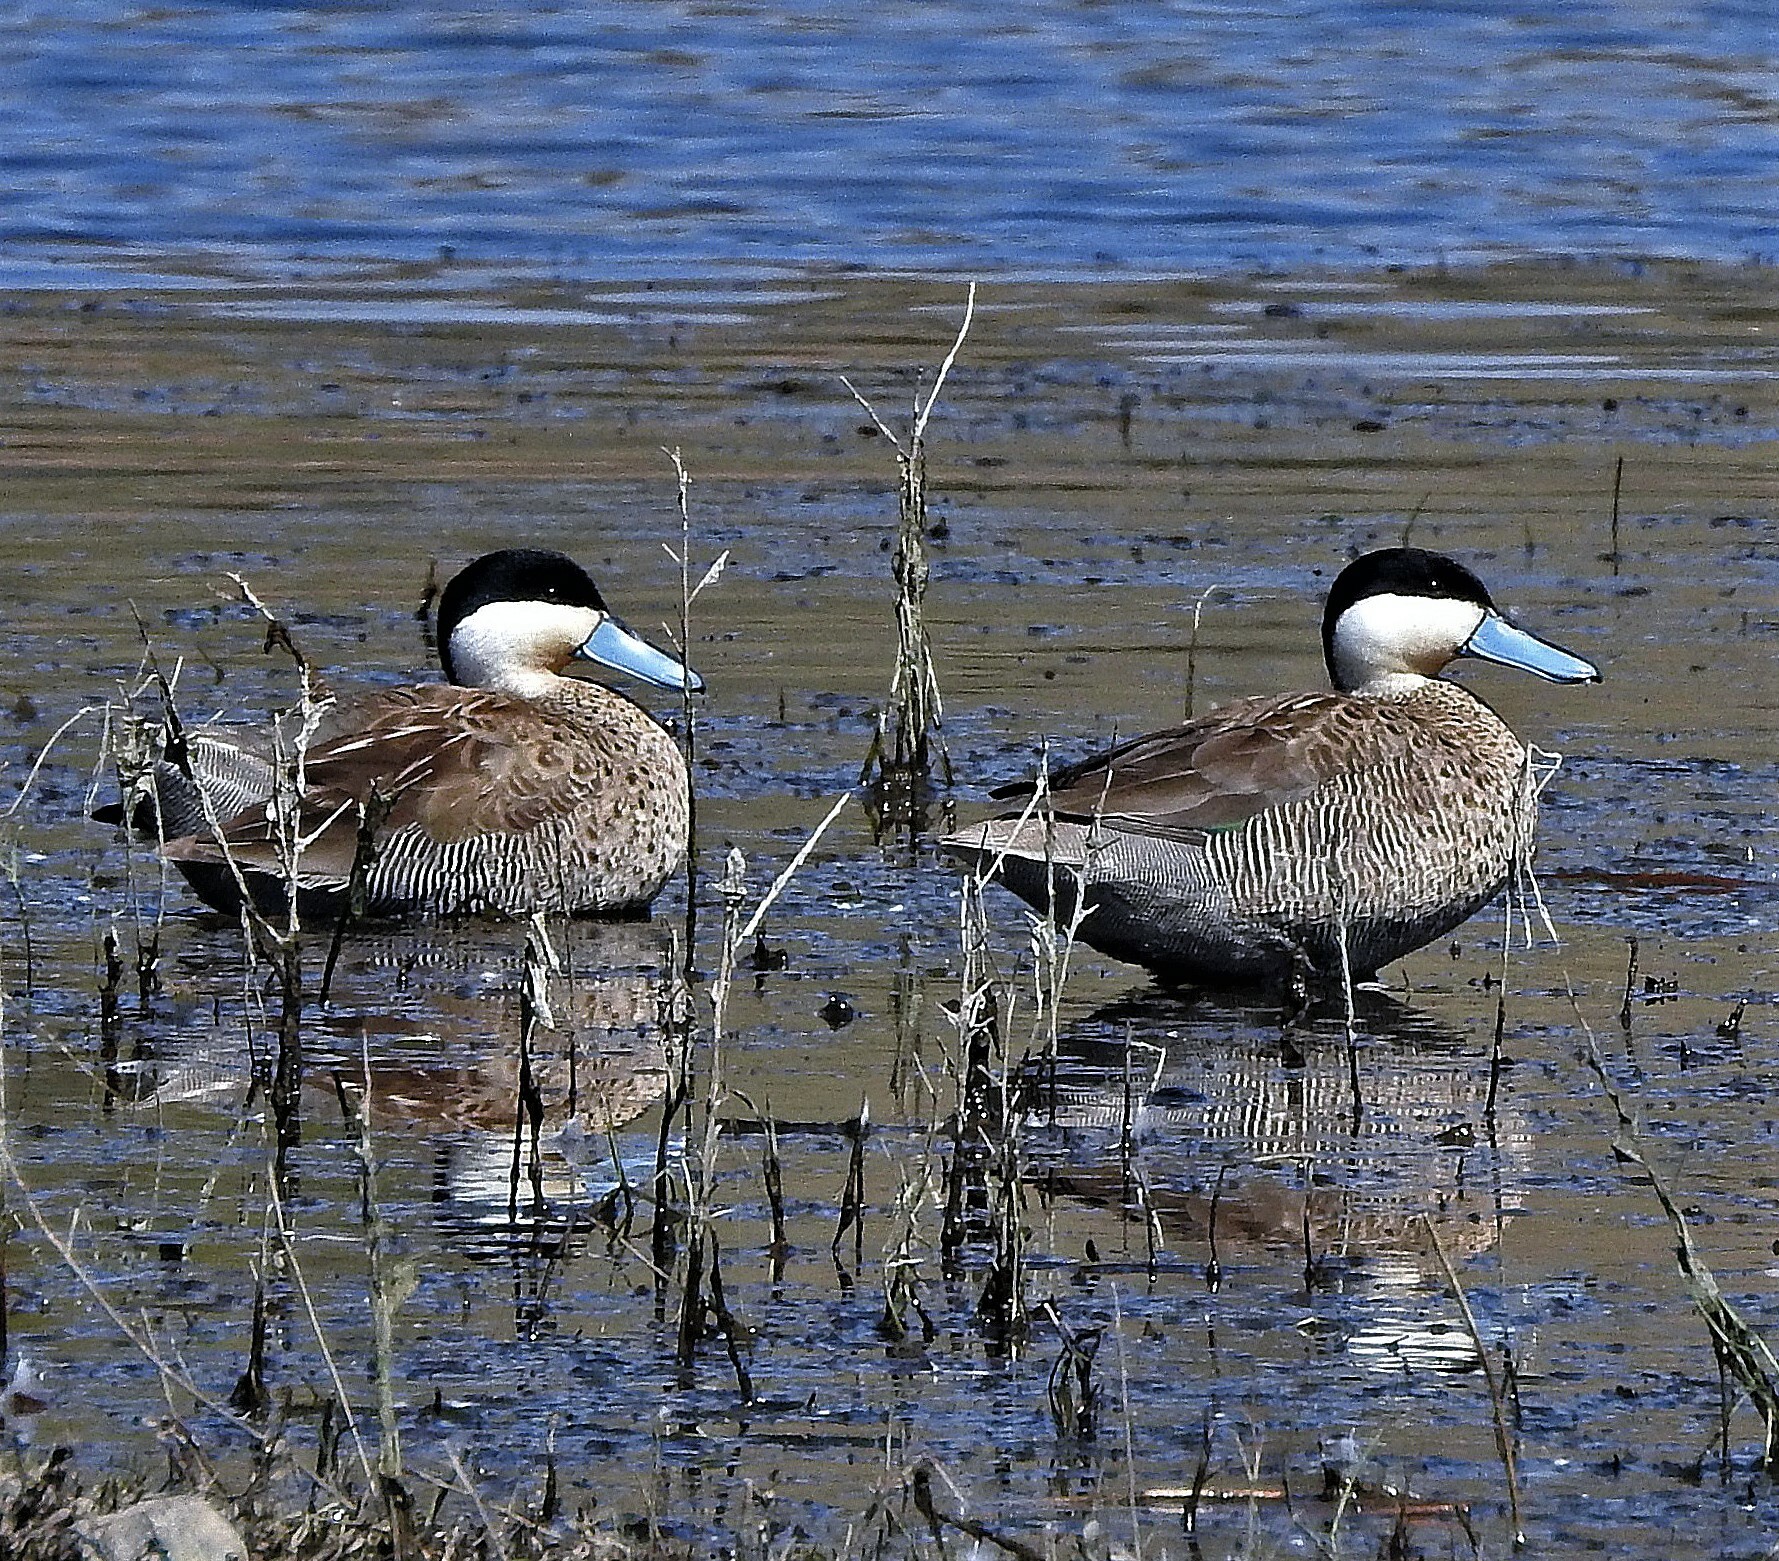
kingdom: Animalia
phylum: Chordata
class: Aves
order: Anseriformes
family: Anatidae
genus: Spatula
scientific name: Spatula puna
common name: Puna teal
